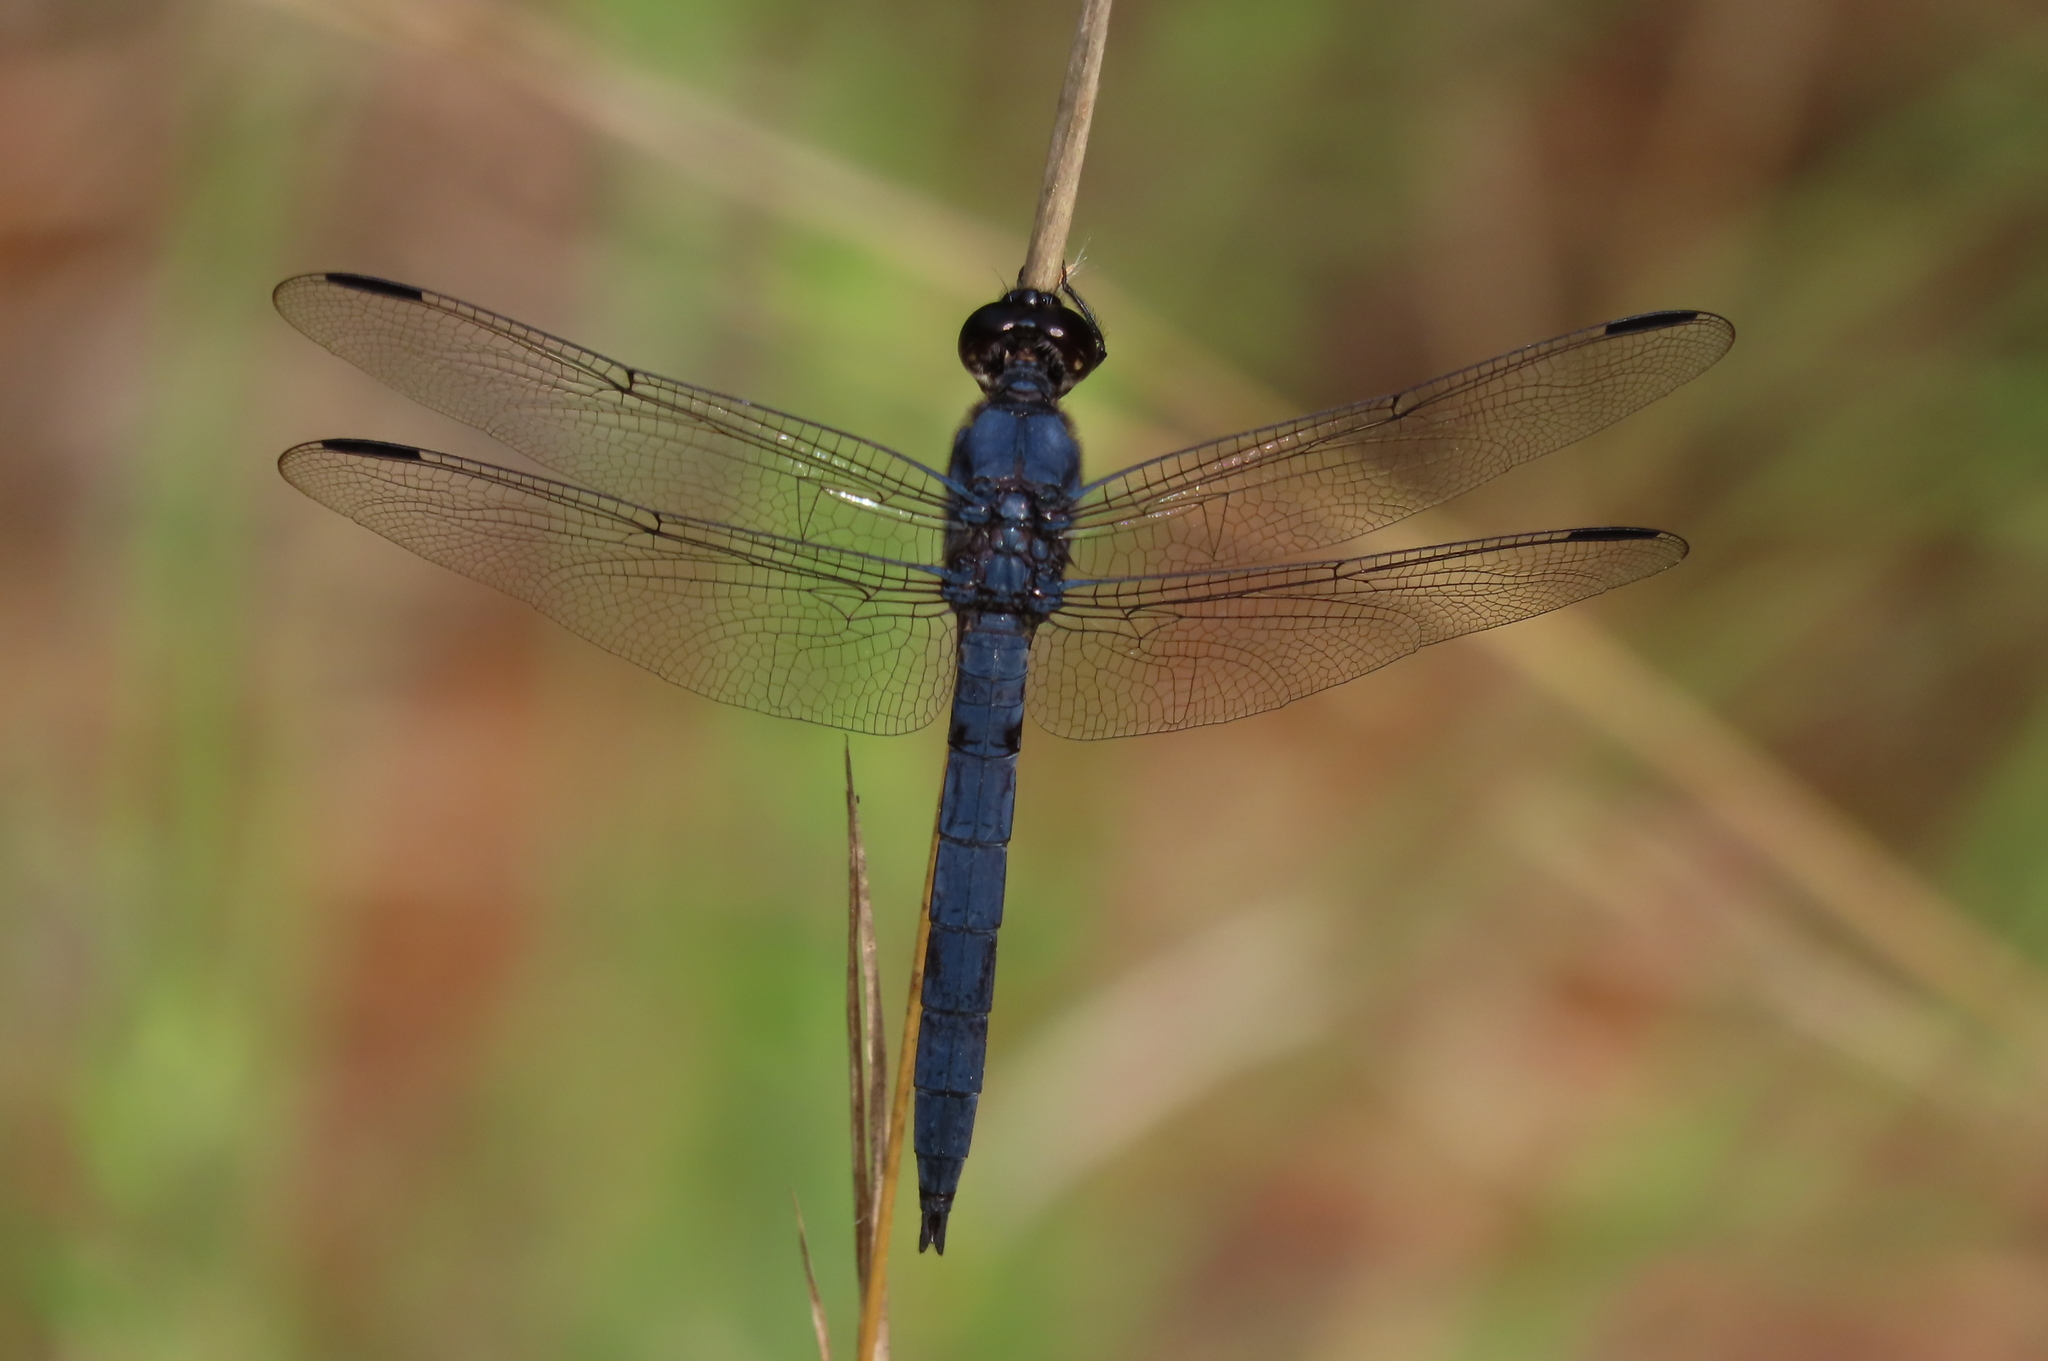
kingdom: Animalia
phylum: Arthropoda
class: Insecta
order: Odonata
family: Libellulidae
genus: Libellula
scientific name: Libellula incesta
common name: Slaty skimmer
